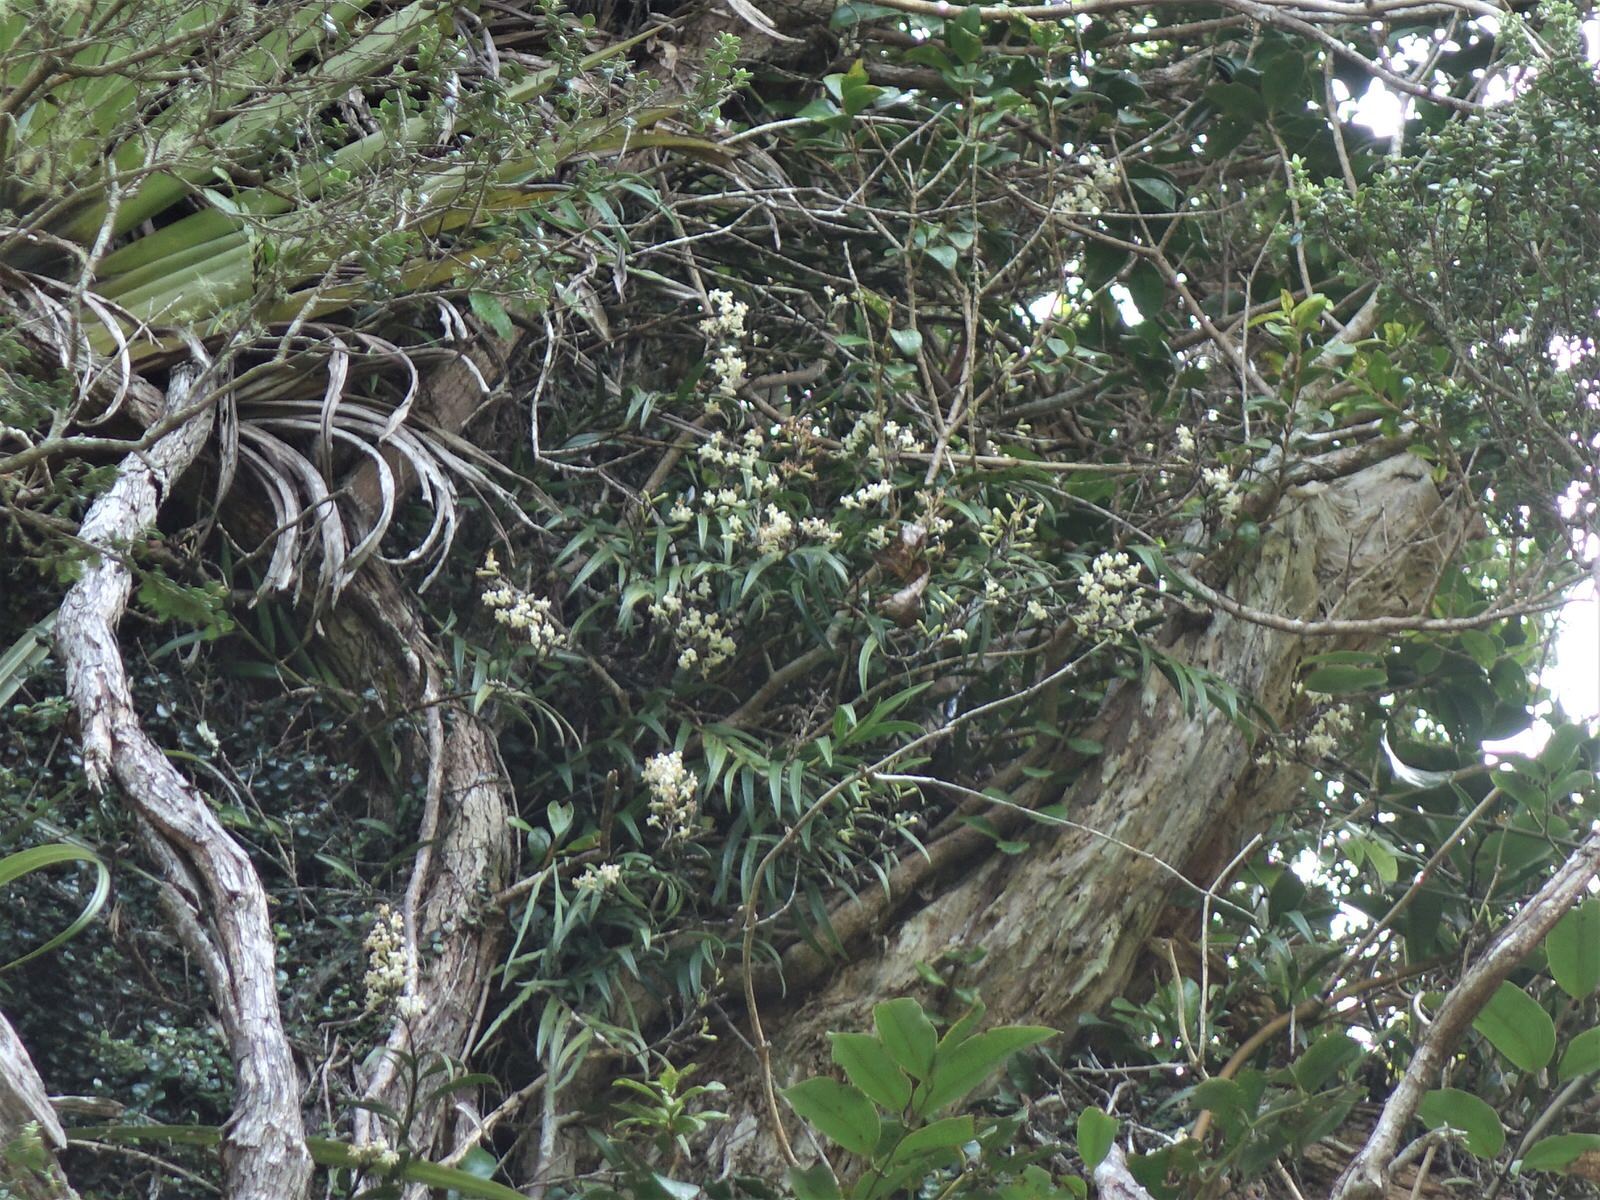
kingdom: Plantae
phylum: Tracheophyta
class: Liliopsida
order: Asparagales
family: Orchidaceae
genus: Earina
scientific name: Earina autumnalis
